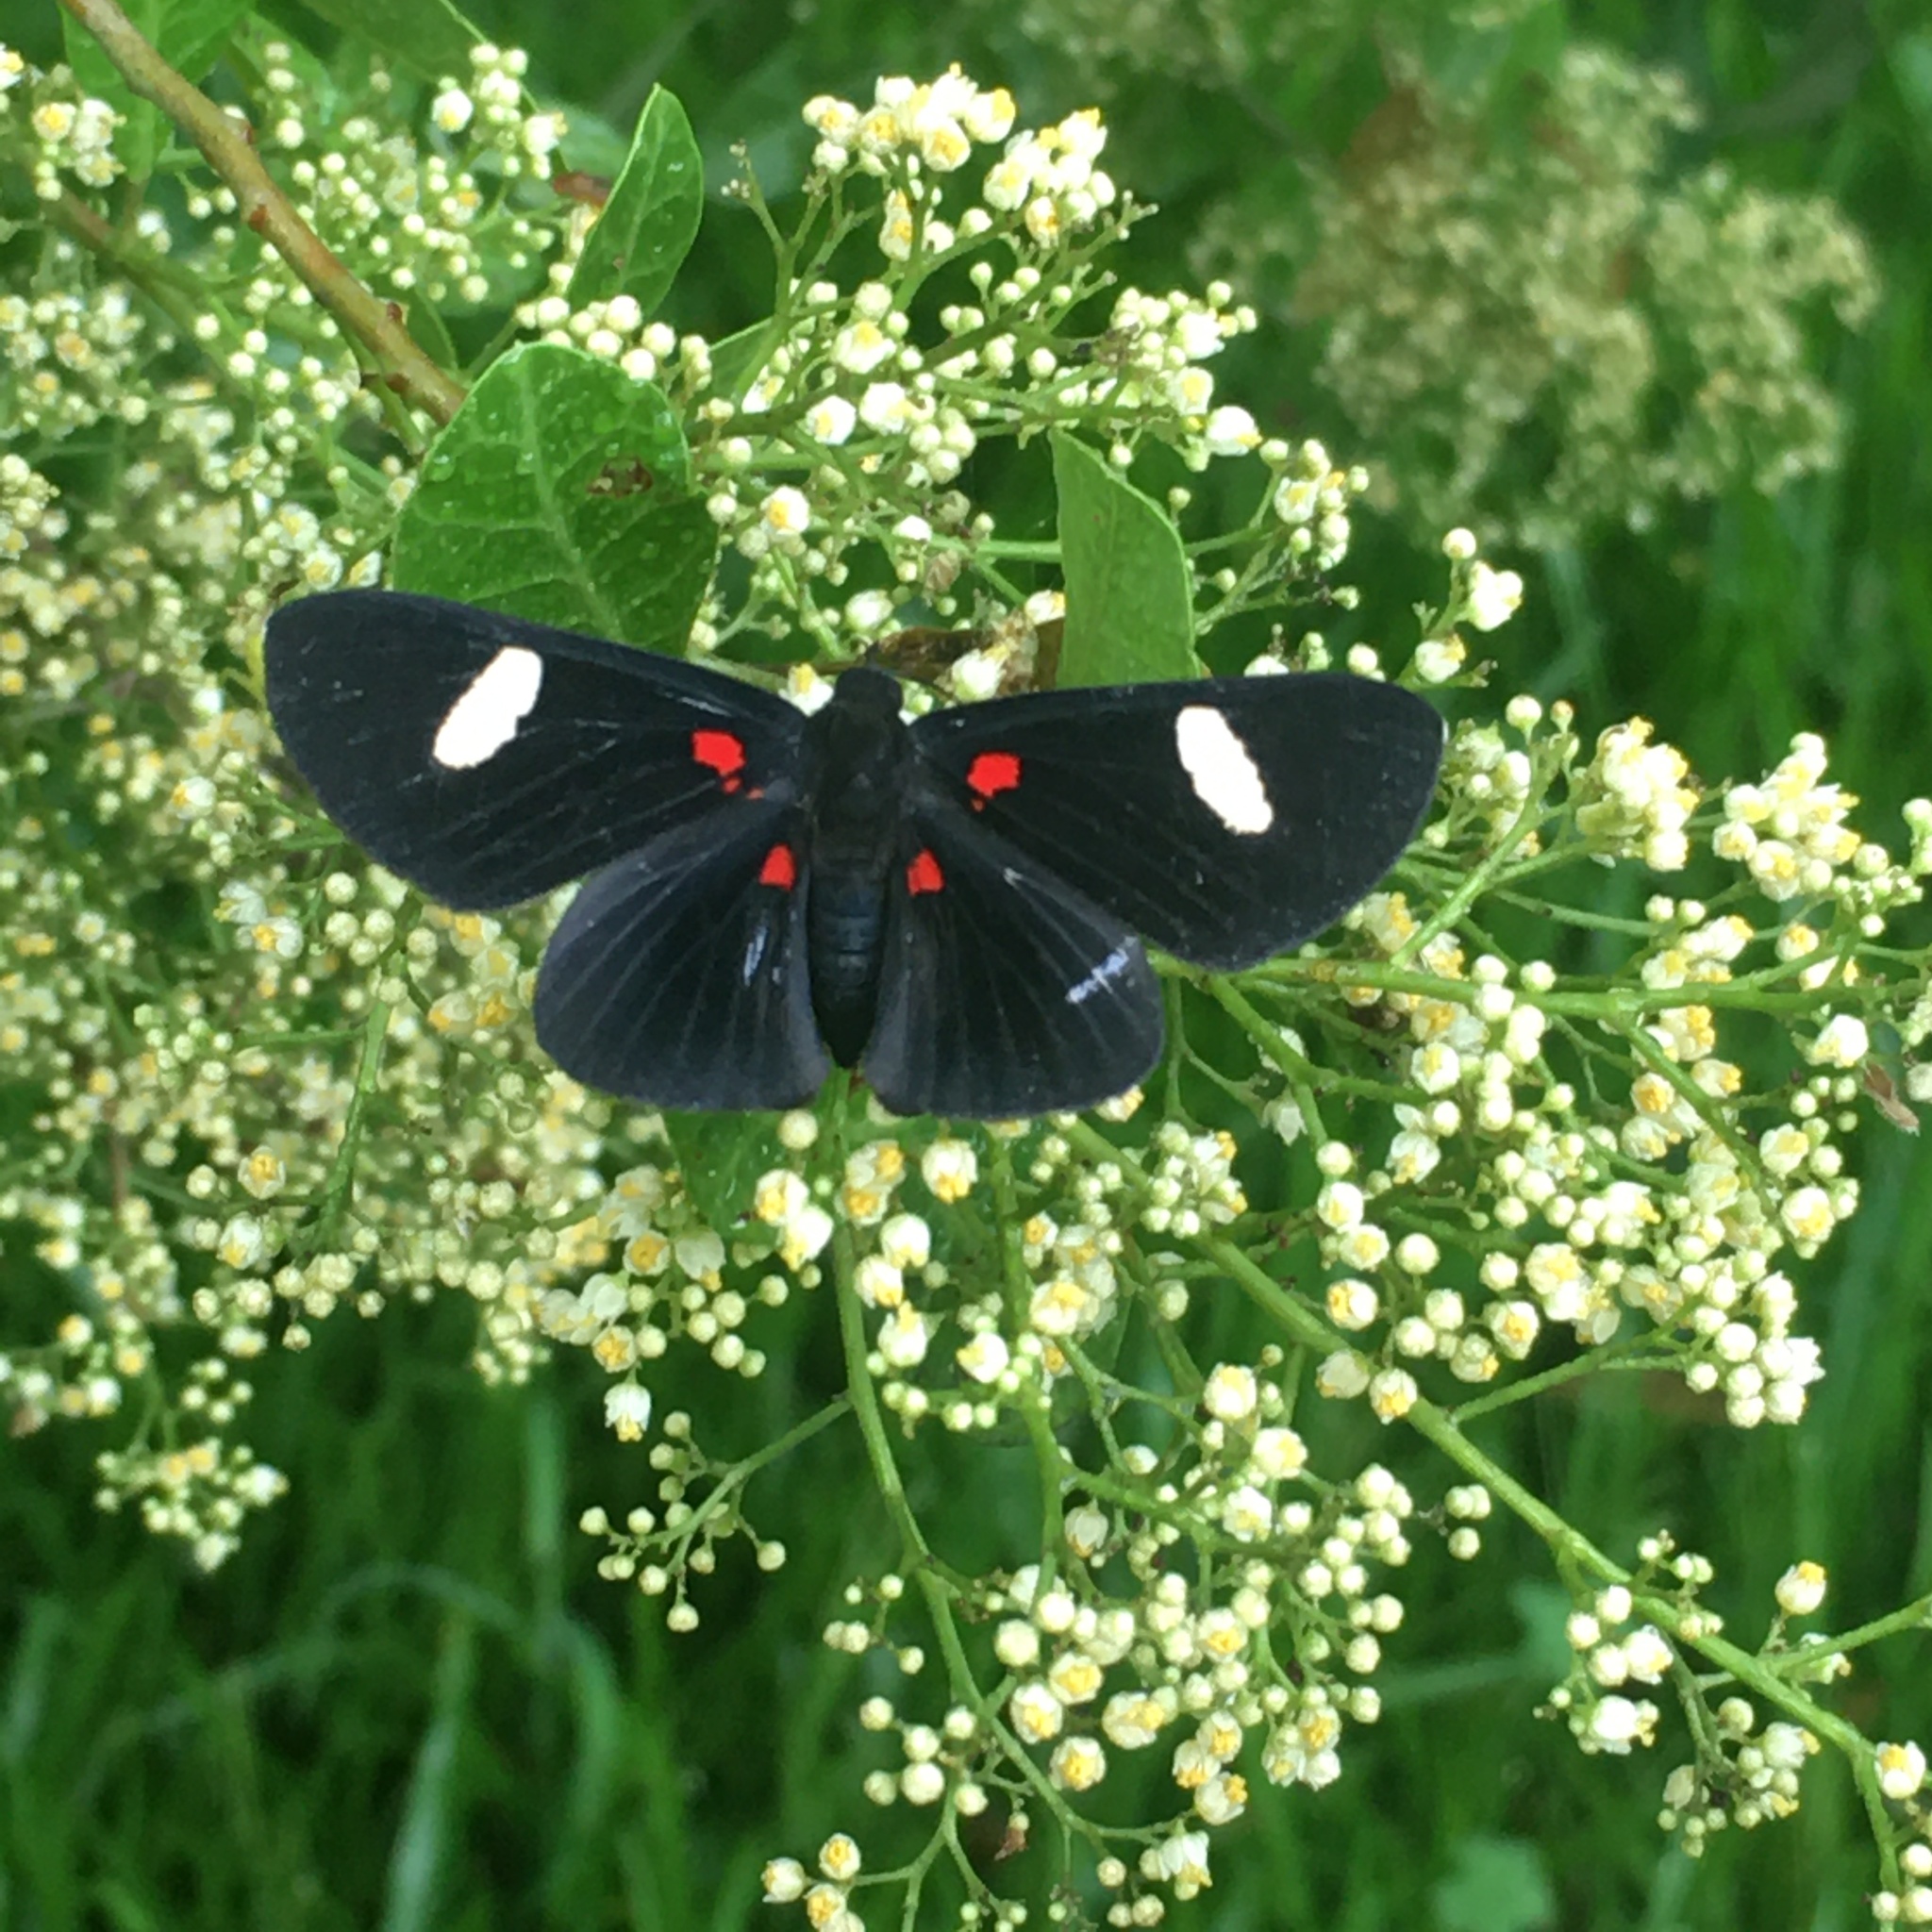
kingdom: Animalia
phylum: Arthropoda
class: Insecta
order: Lepidoptera
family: Lycaenidae
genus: Melanis
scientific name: Melanis aegates
